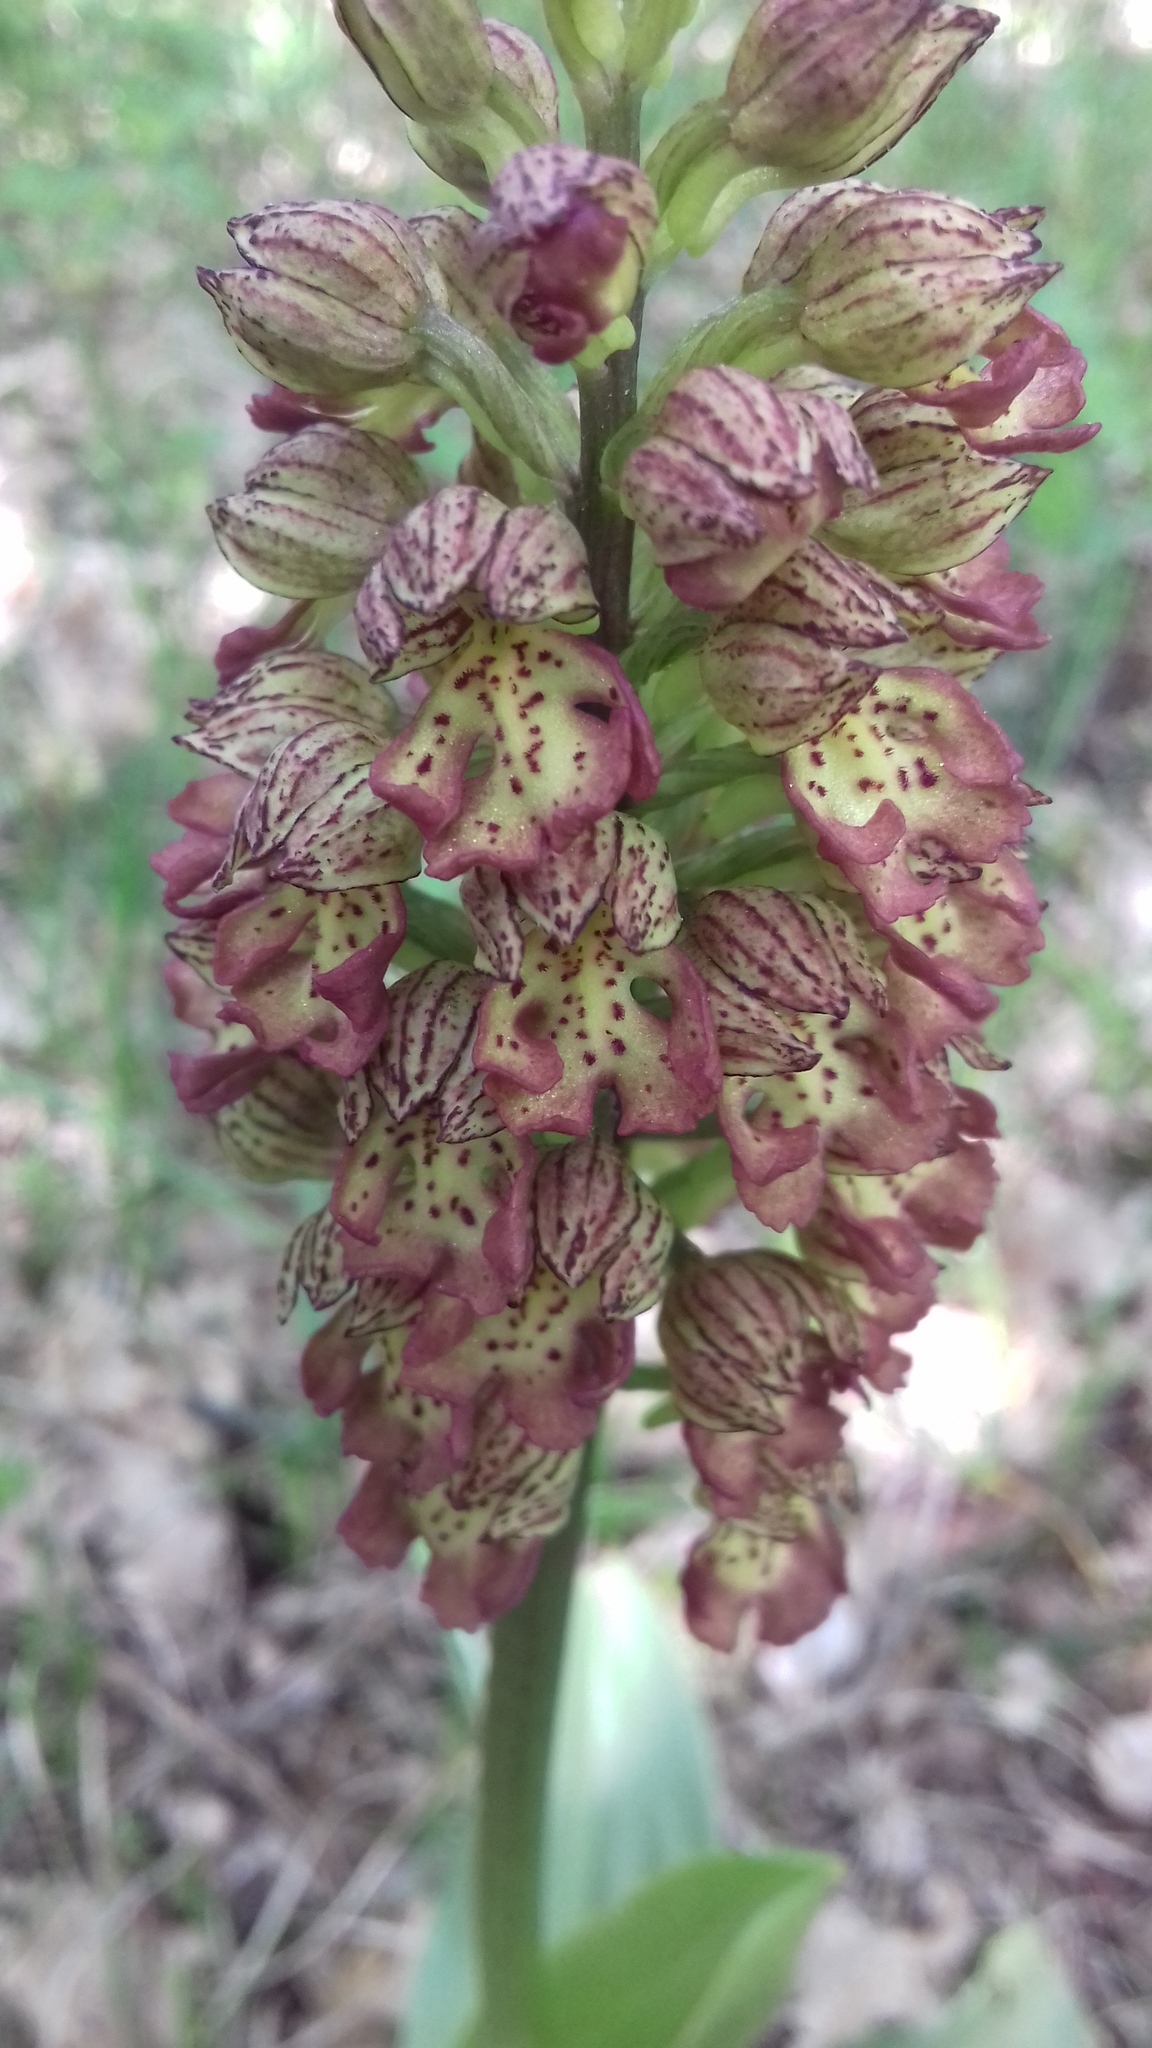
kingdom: Plantae
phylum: Tracheophyta
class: Liliopsida
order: Asparagales
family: Orchidaceae
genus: Orchis
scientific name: Orchis wulffiana
